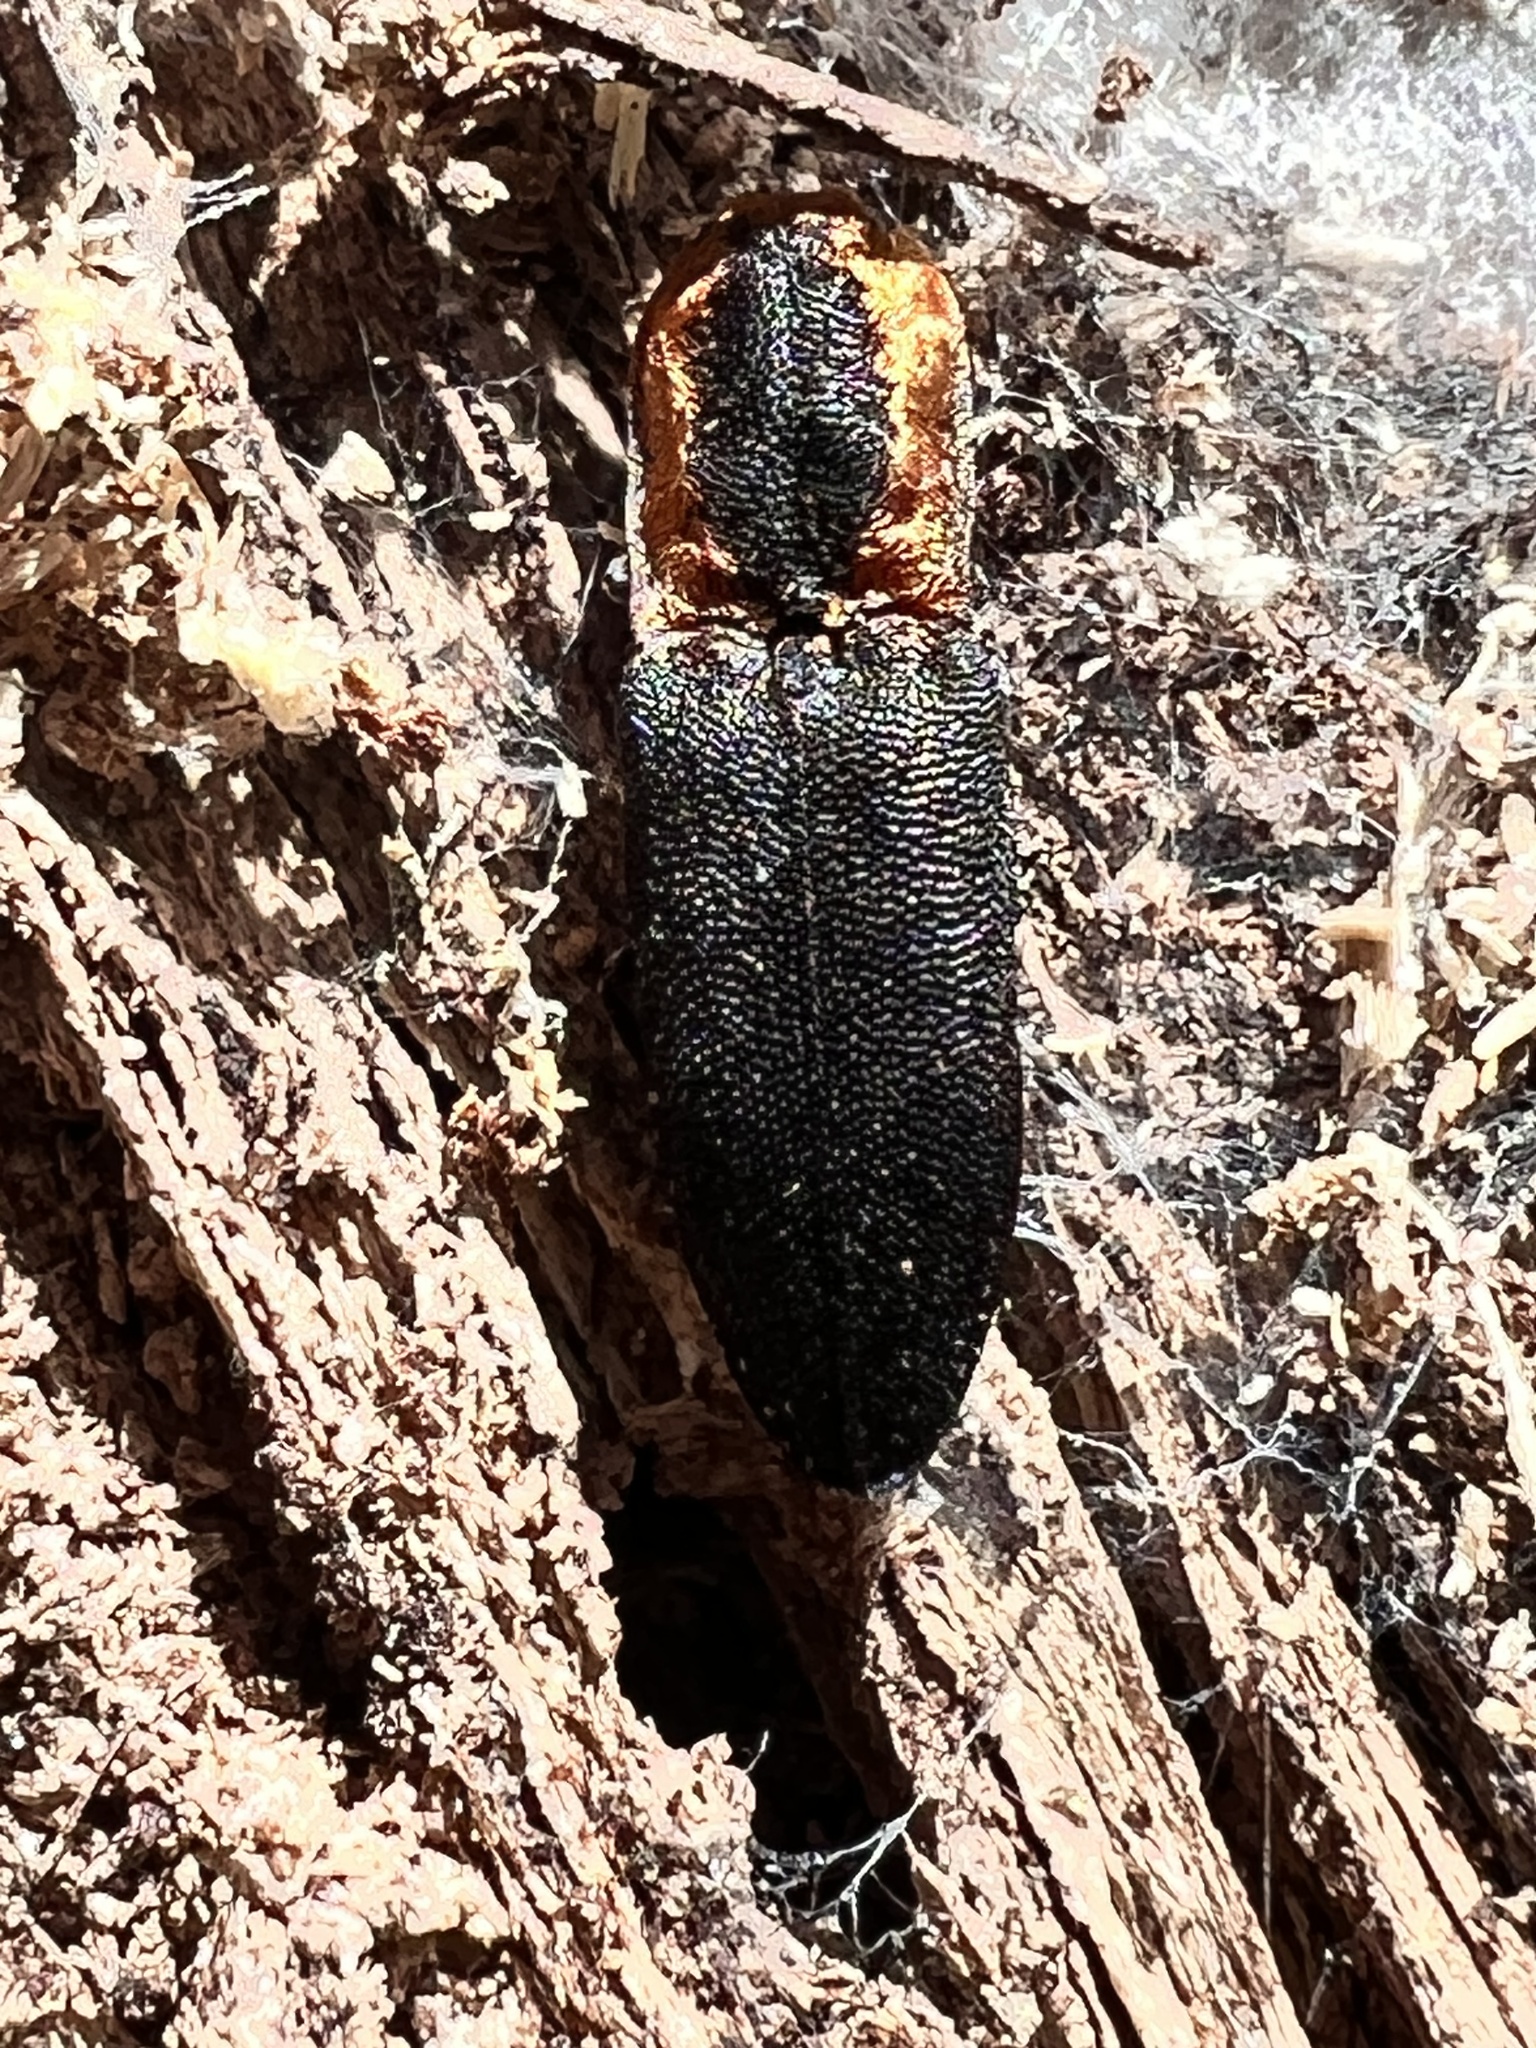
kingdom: Animalia
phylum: Arthropoda
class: Insecta
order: Coleoptera
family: Elateridae
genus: Lacon
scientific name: Lacon discoideus
